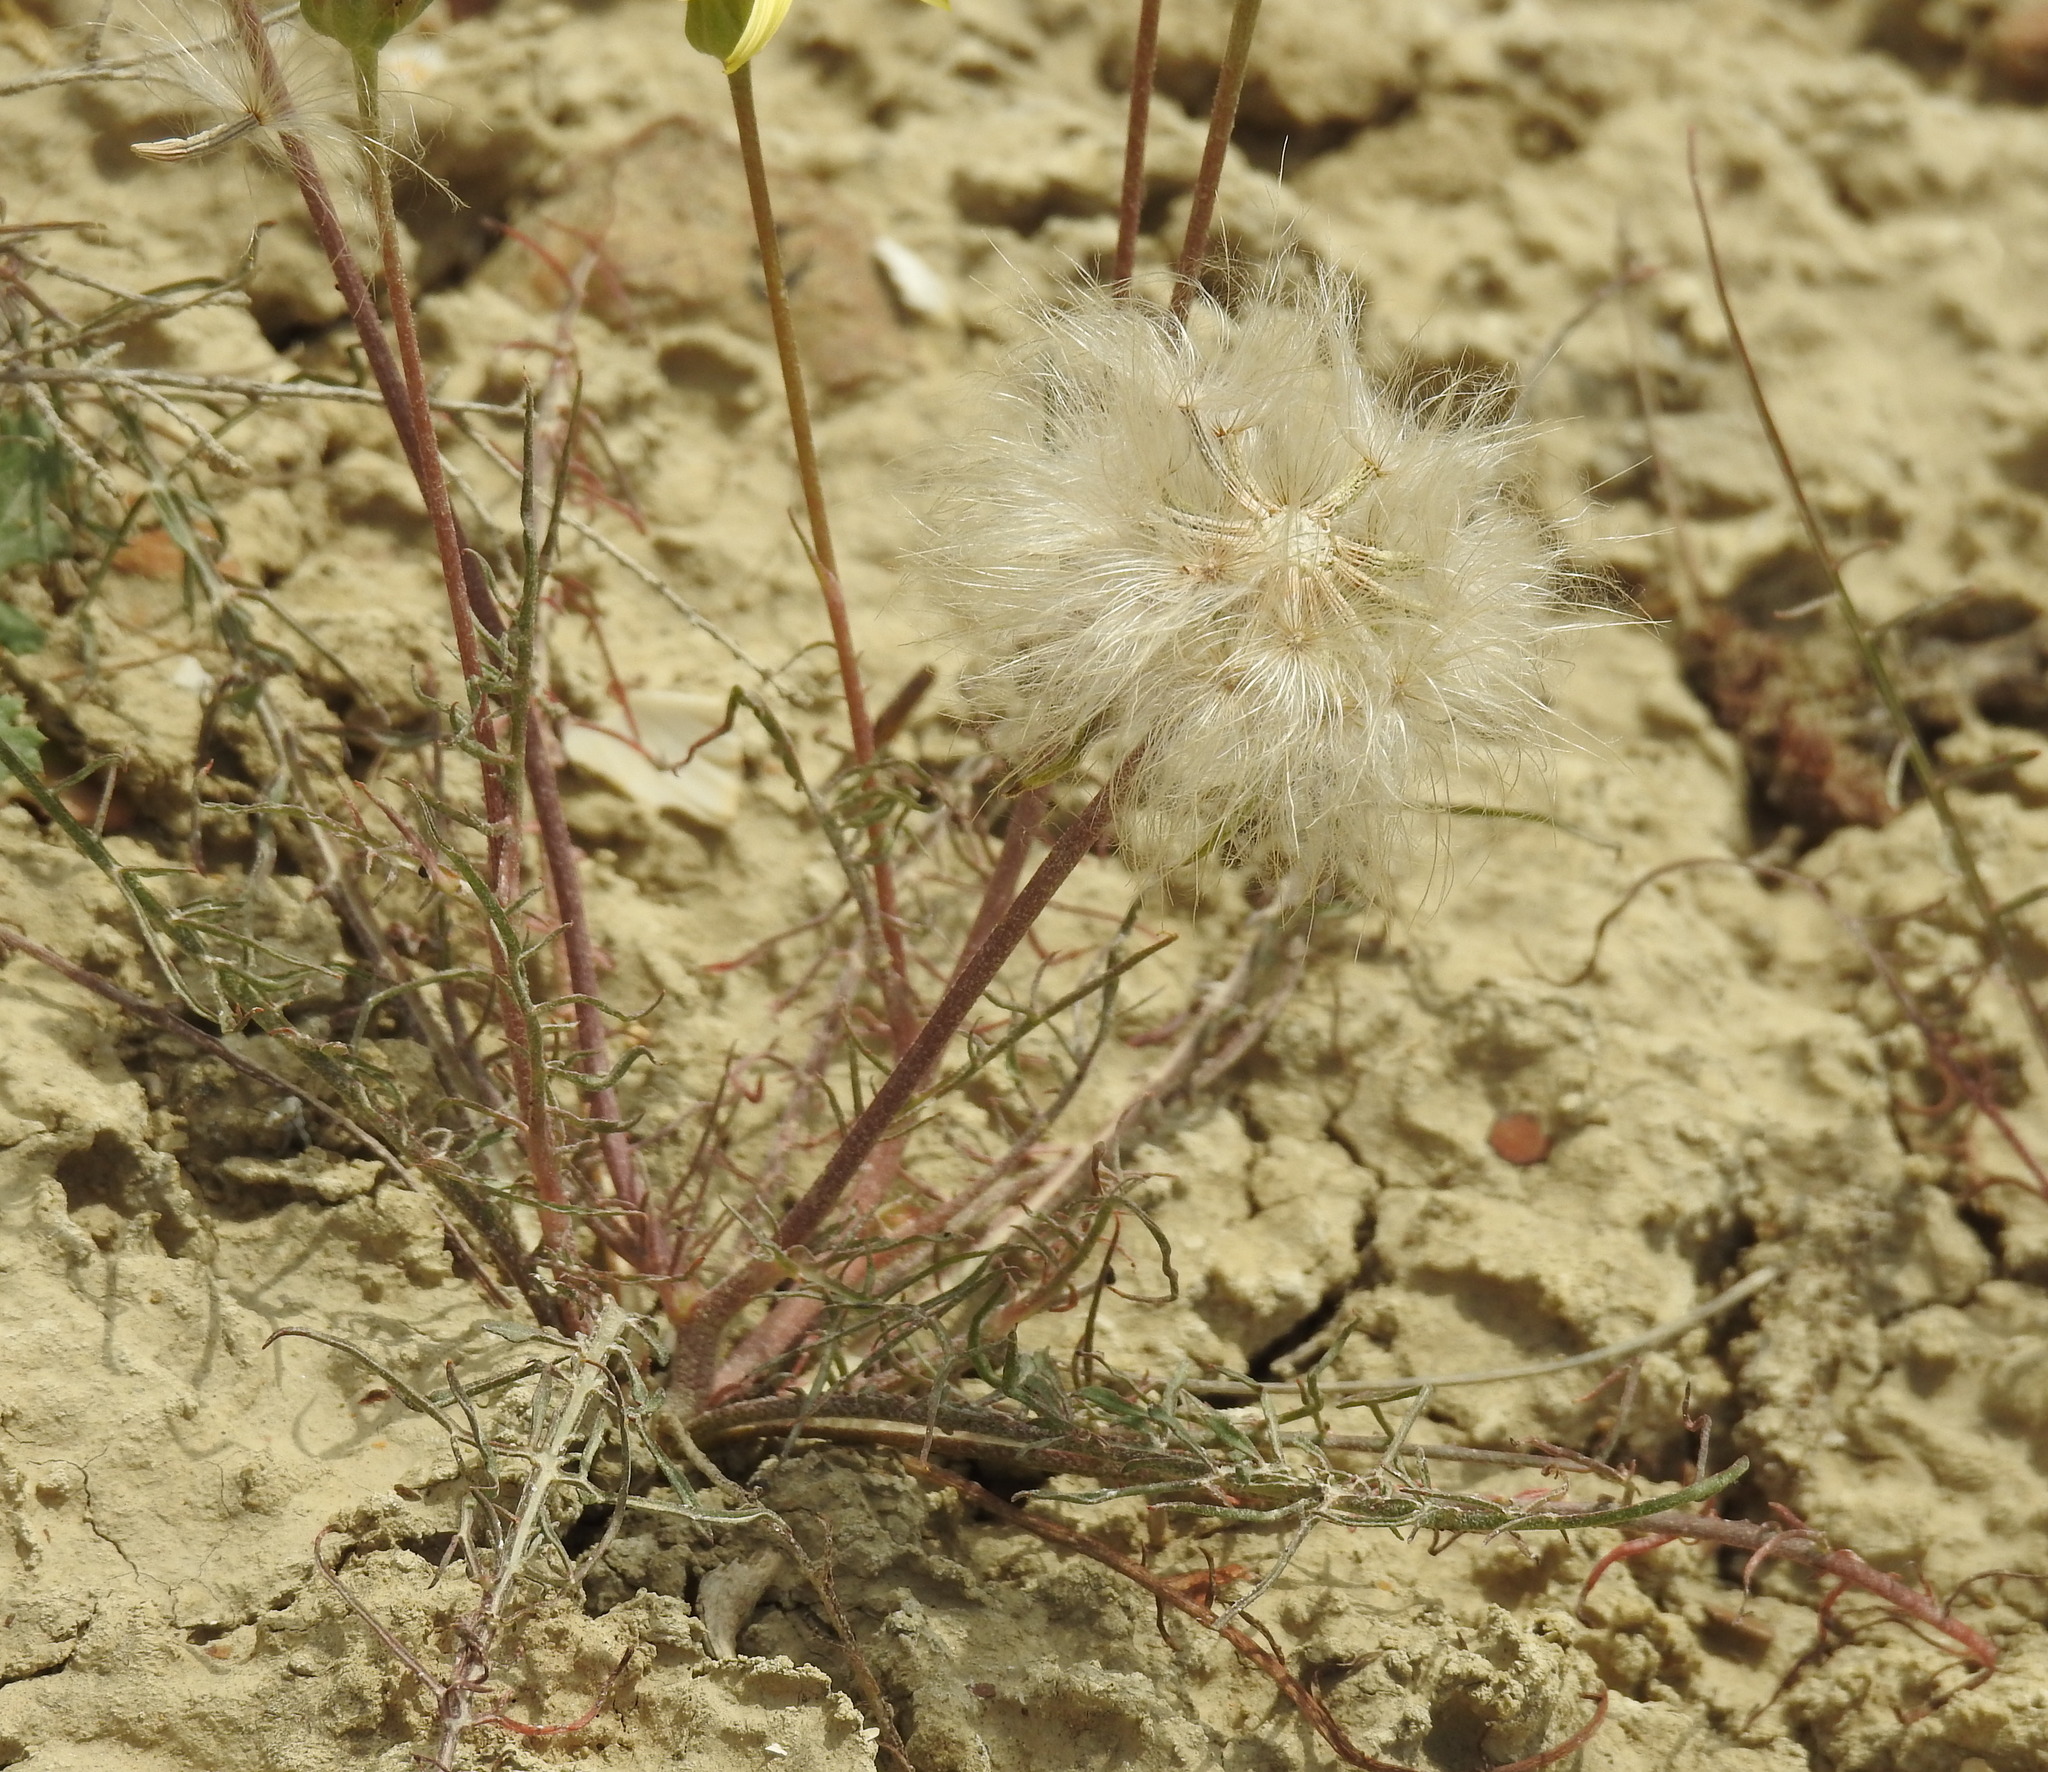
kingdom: Plantae
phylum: Tracheophyta
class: Magnoliopsida
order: Asterales
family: Asteraceae
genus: Scorzonera
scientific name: Scorzonera laciniata
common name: Cutleaf vipergrass
